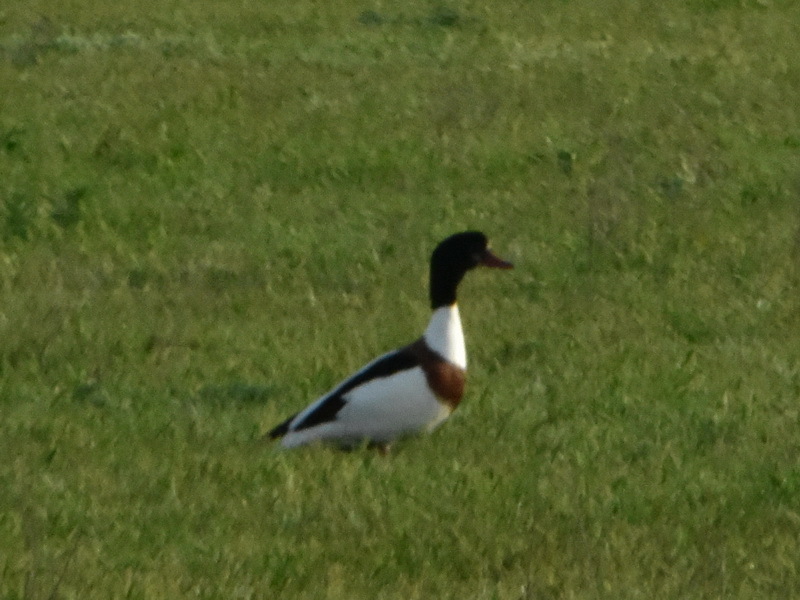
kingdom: Animalia
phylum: Chordata
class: Aves
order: Anseriformes
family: Anatidae
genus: Tadorna
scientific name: Tadorna tadorna
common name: Common shelduck
